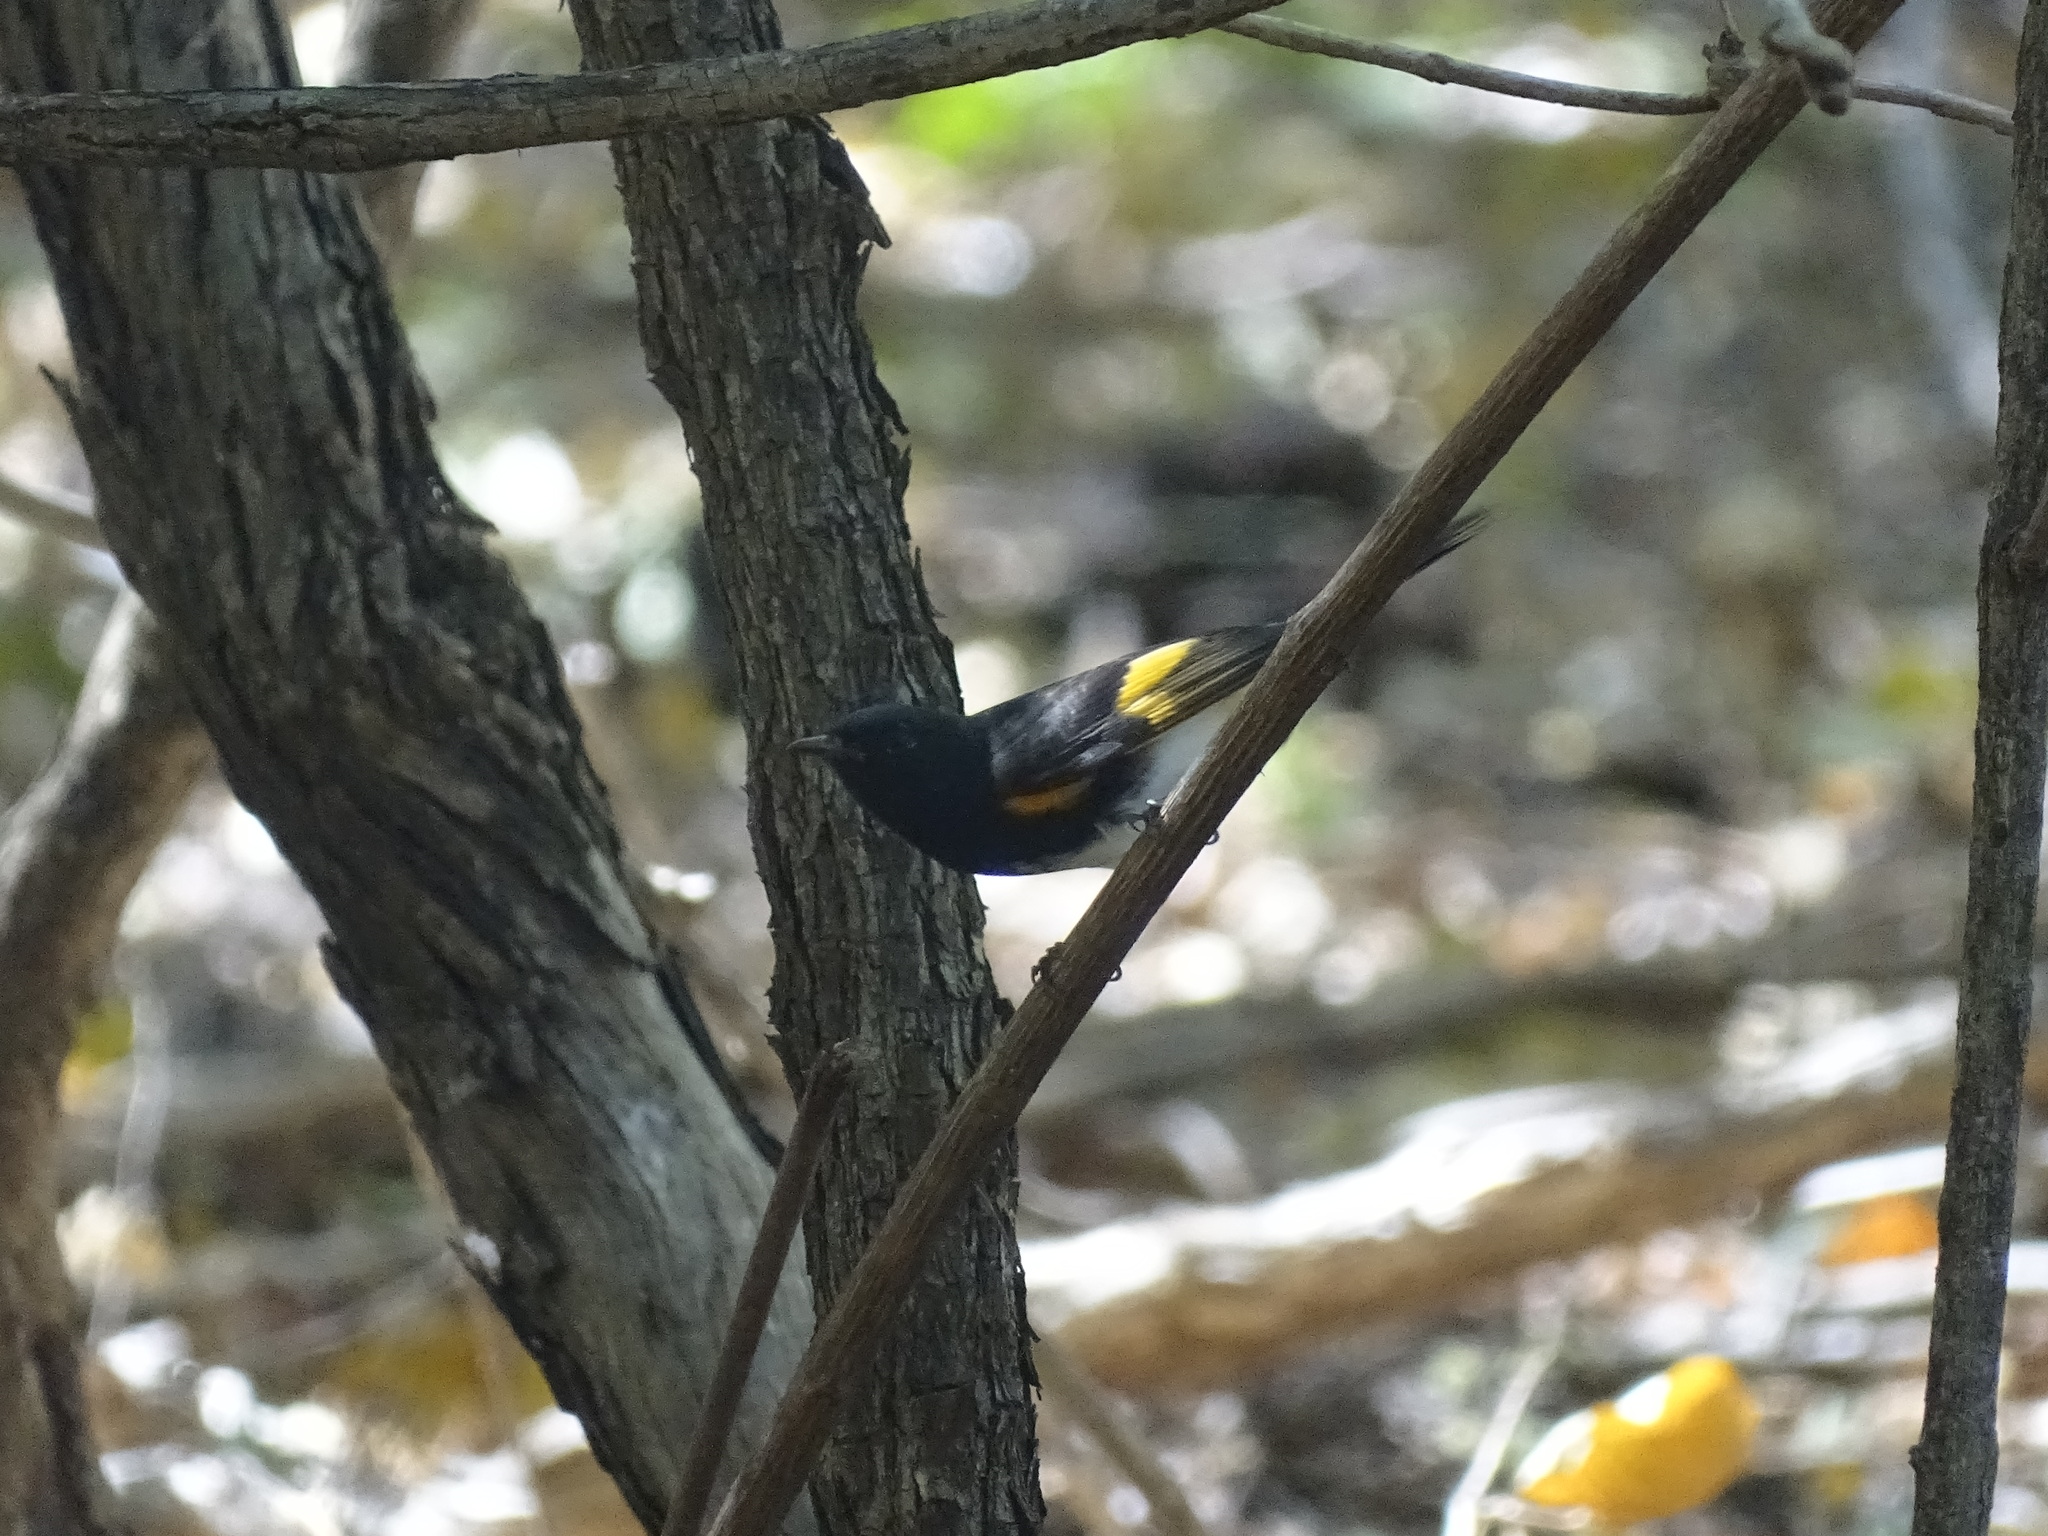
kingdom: Animalia
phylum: Chordata
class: Aves
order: Passeriformes
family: Parulidae
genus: Setophaga
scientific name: Setophaga ruticilla
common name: American redstart
